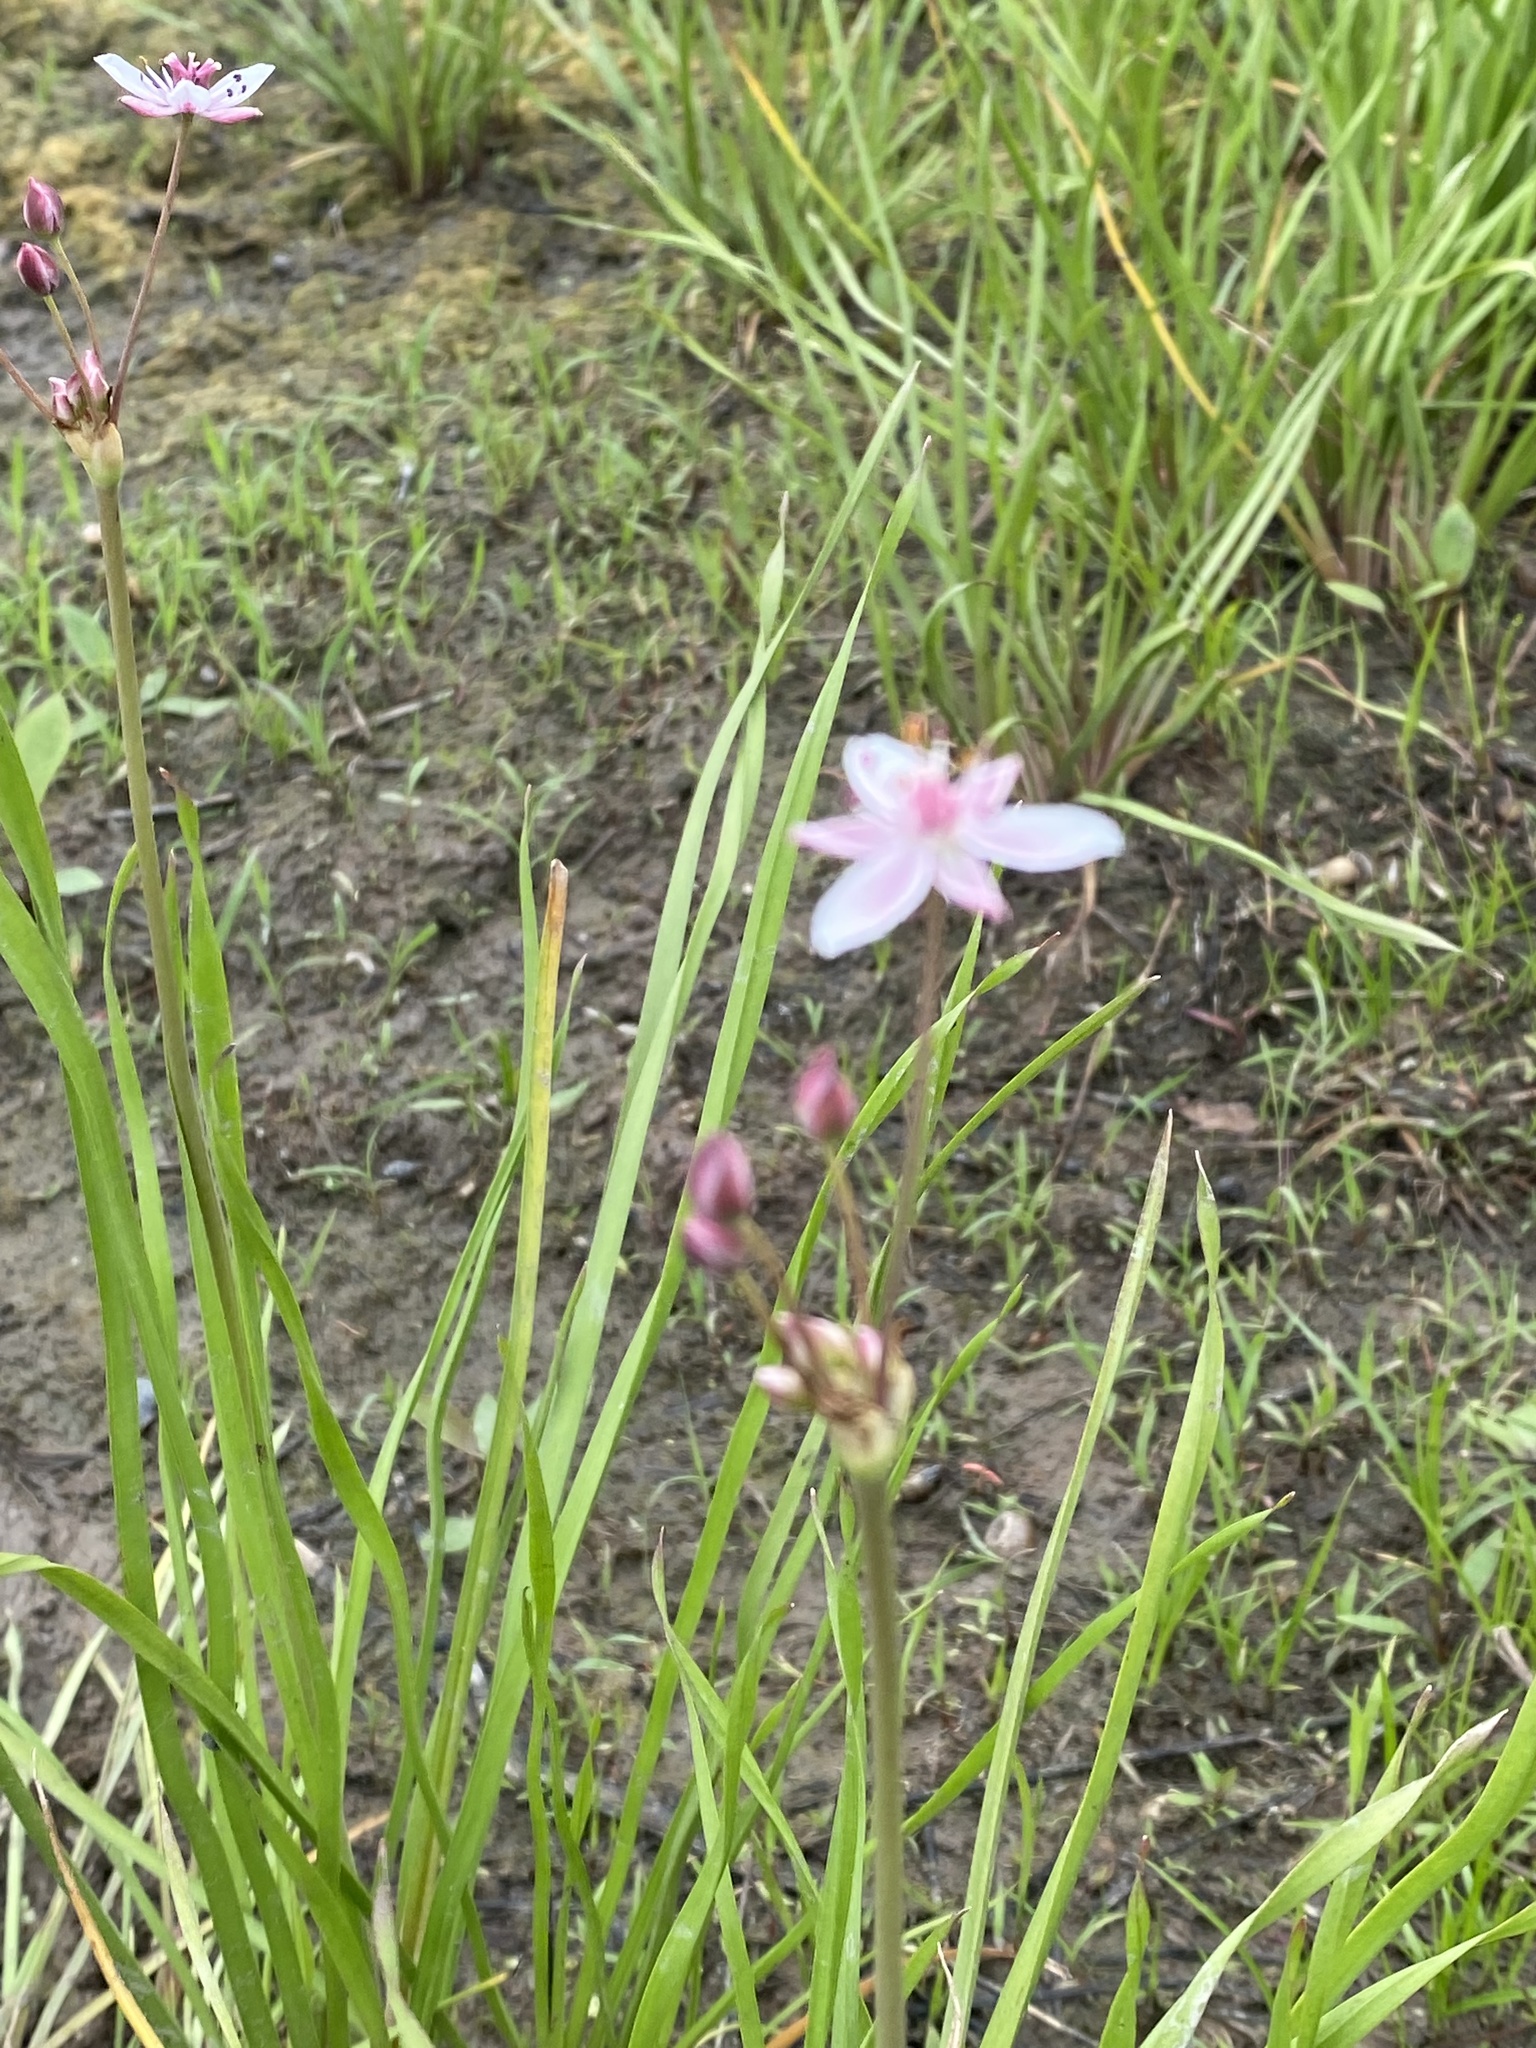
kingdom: Plantae
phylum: Tracheophyta
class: Liliopsida
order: Alismatales
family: Butomaceae
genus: Butomus
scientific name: Butomus umbellatus
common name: Flowering-rush
